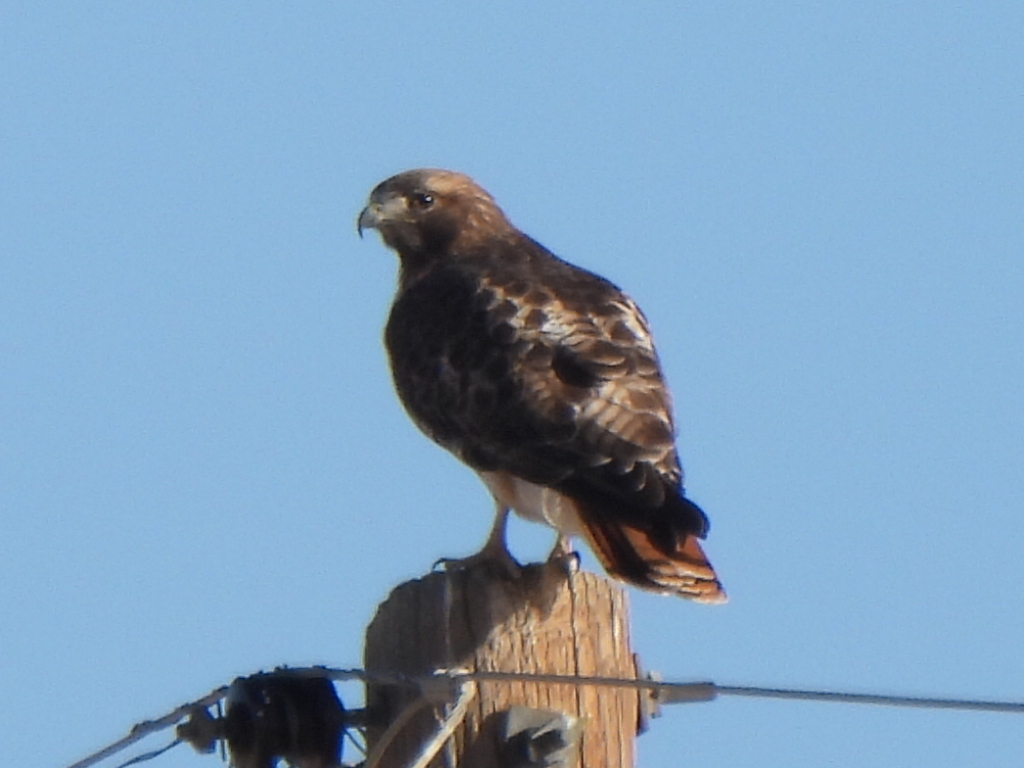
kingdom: Animalia
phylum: Chordata
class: Aves
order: Accipitriformes
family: Accipitridae
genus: Buteo
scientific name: Buteo jamaicensis
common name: Red-tailed hawk
